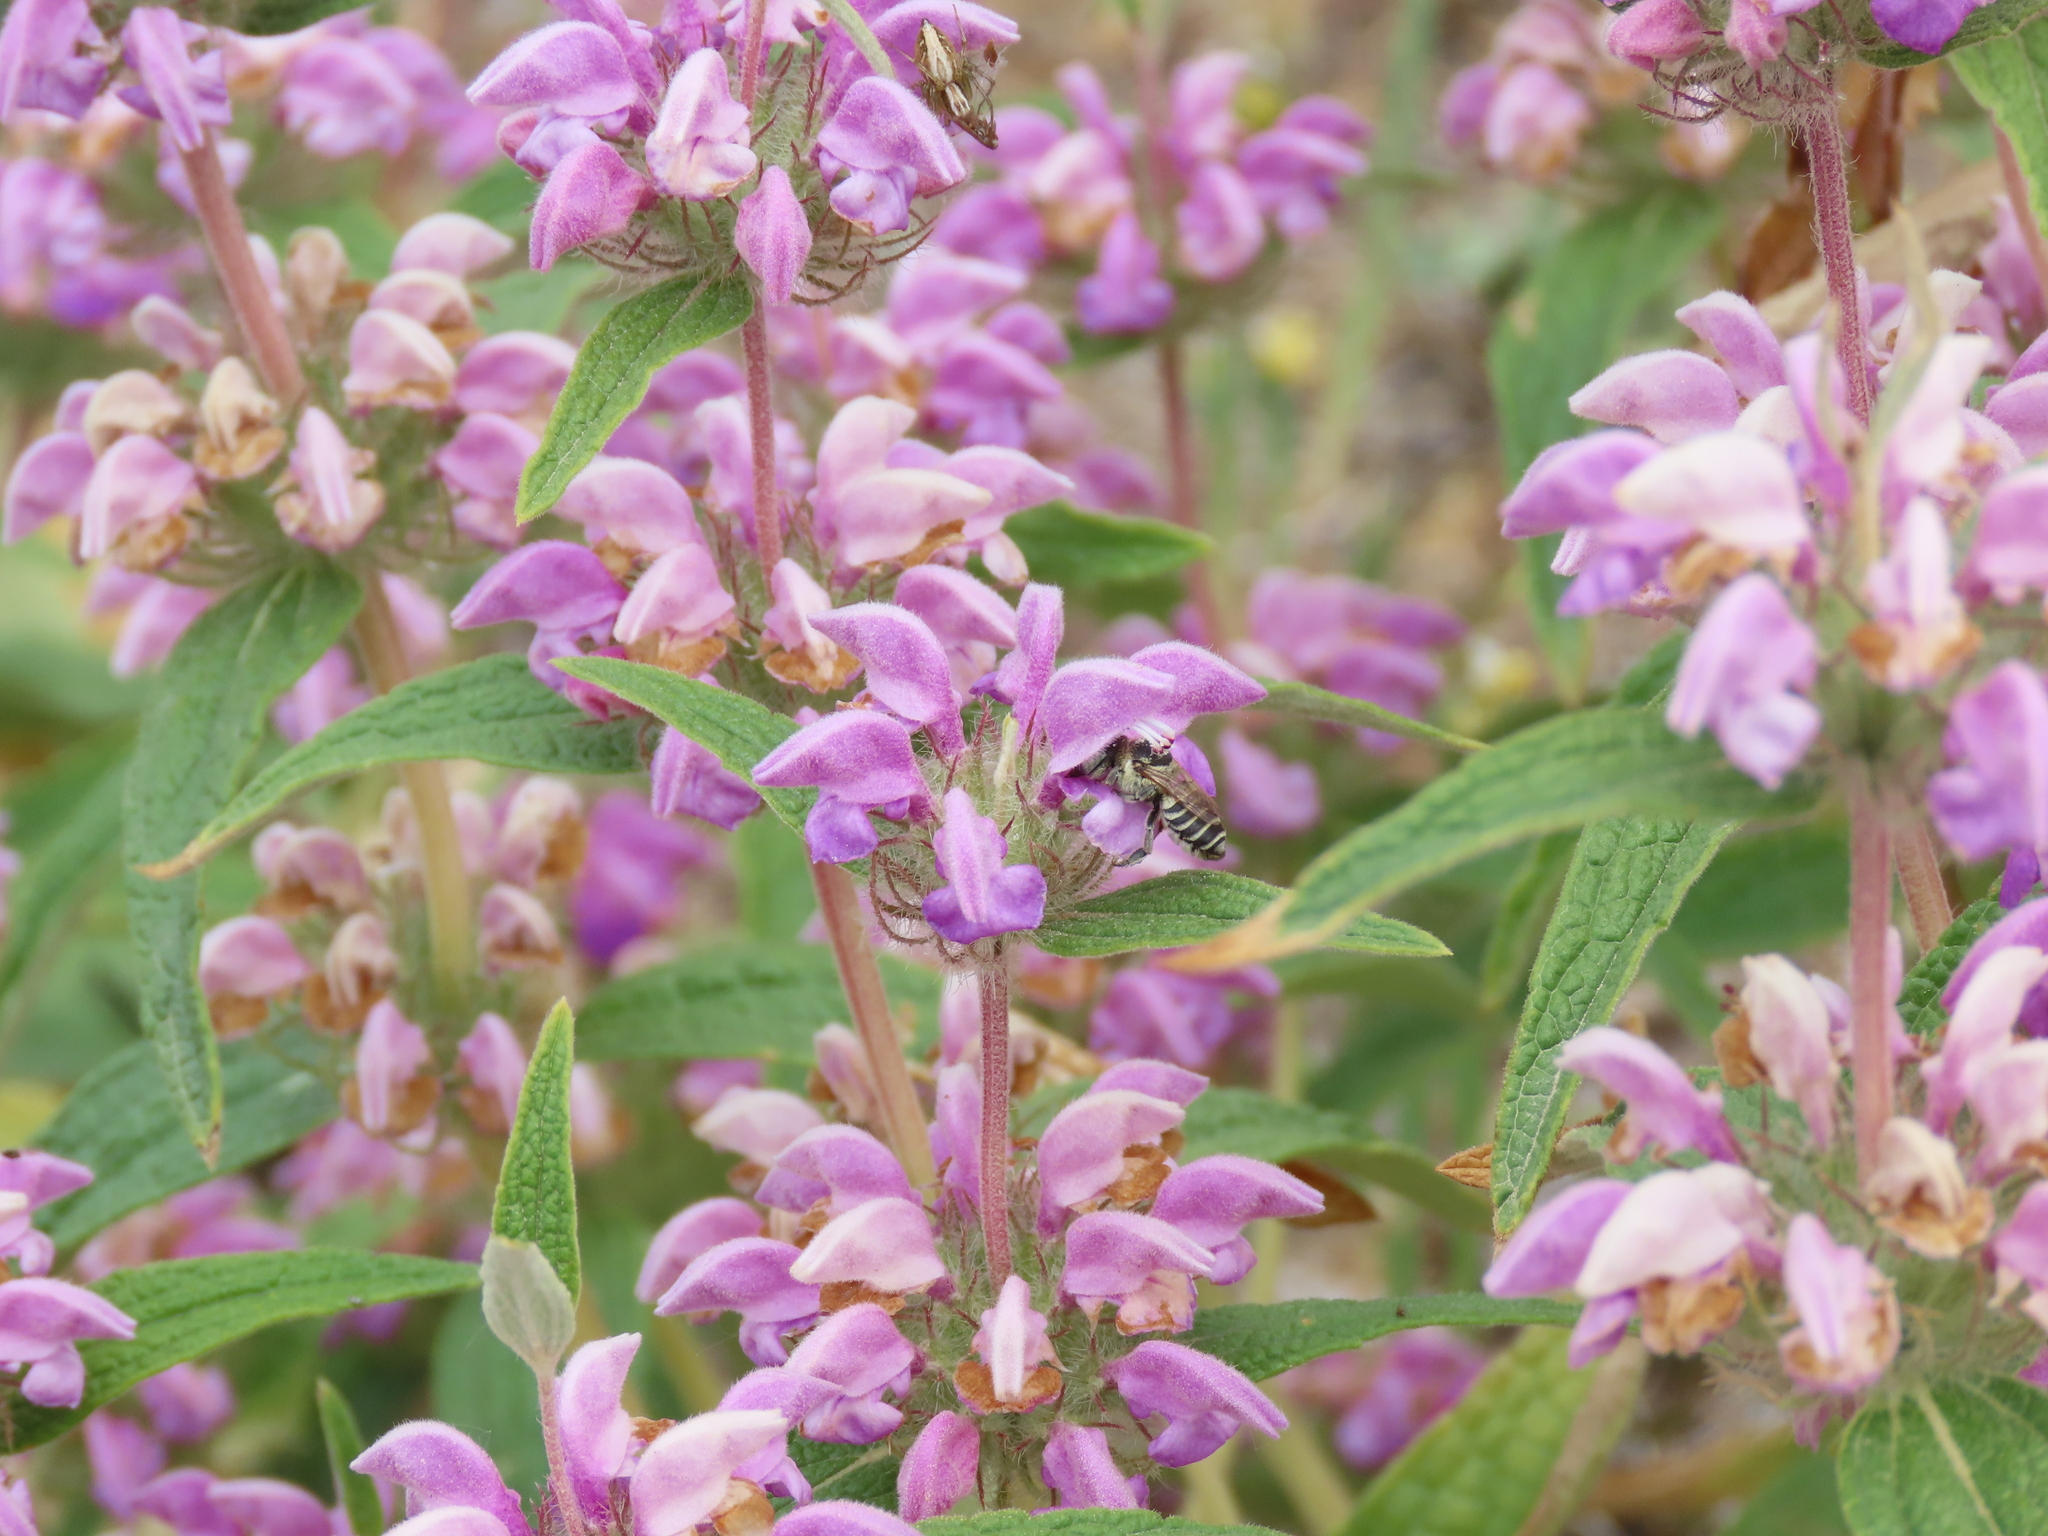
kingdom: Plantae
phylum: Tracheophyta
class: Magnoliopsida
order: Lamiales
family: Lamiaceae
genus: Phlomis
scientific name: Phlomis herba-venti
